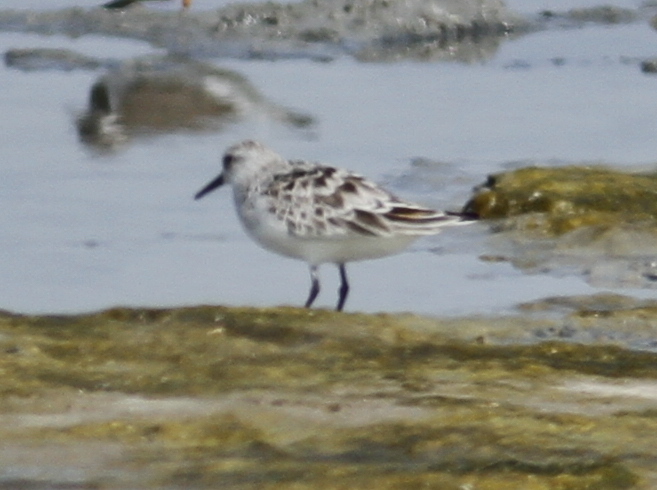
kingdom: Animalia
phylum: Chordata
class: Aves
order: Charadriiformes
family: Scolopacidae
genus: Calidris
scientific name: Calidris alba
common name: Sanderling
